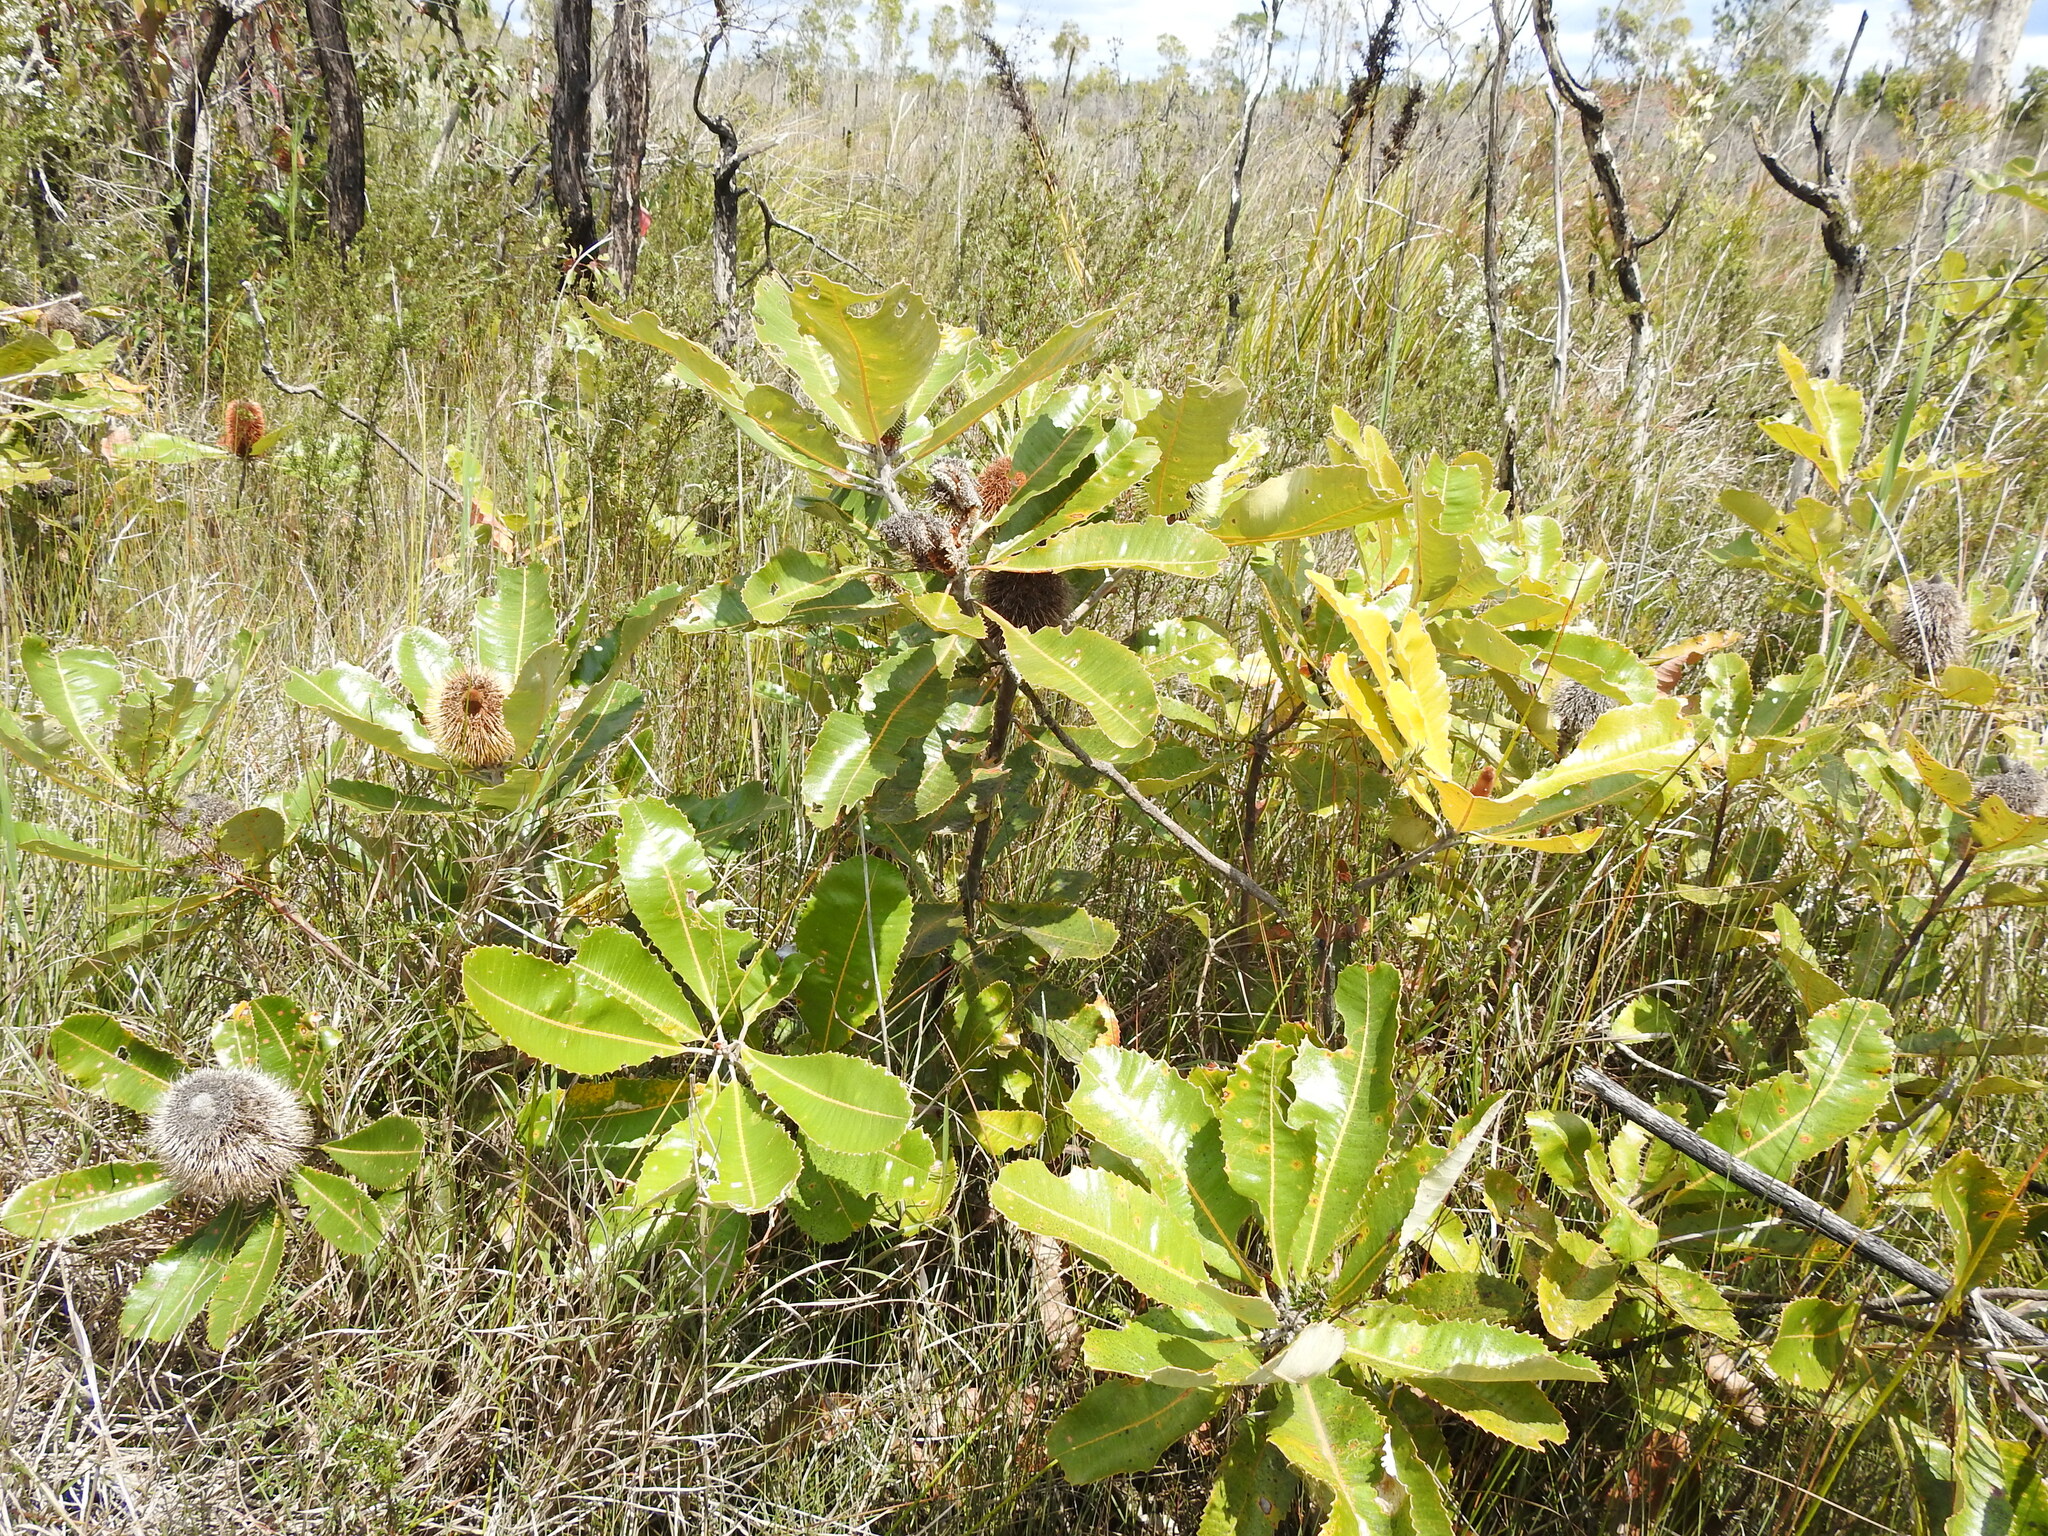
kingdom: Plantae
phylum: Tracheophyta
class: Magnoliopsida
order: Proteales
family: Proteaceae
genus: Banksia
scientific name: Banksia robur
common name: Broadleaf banksia
